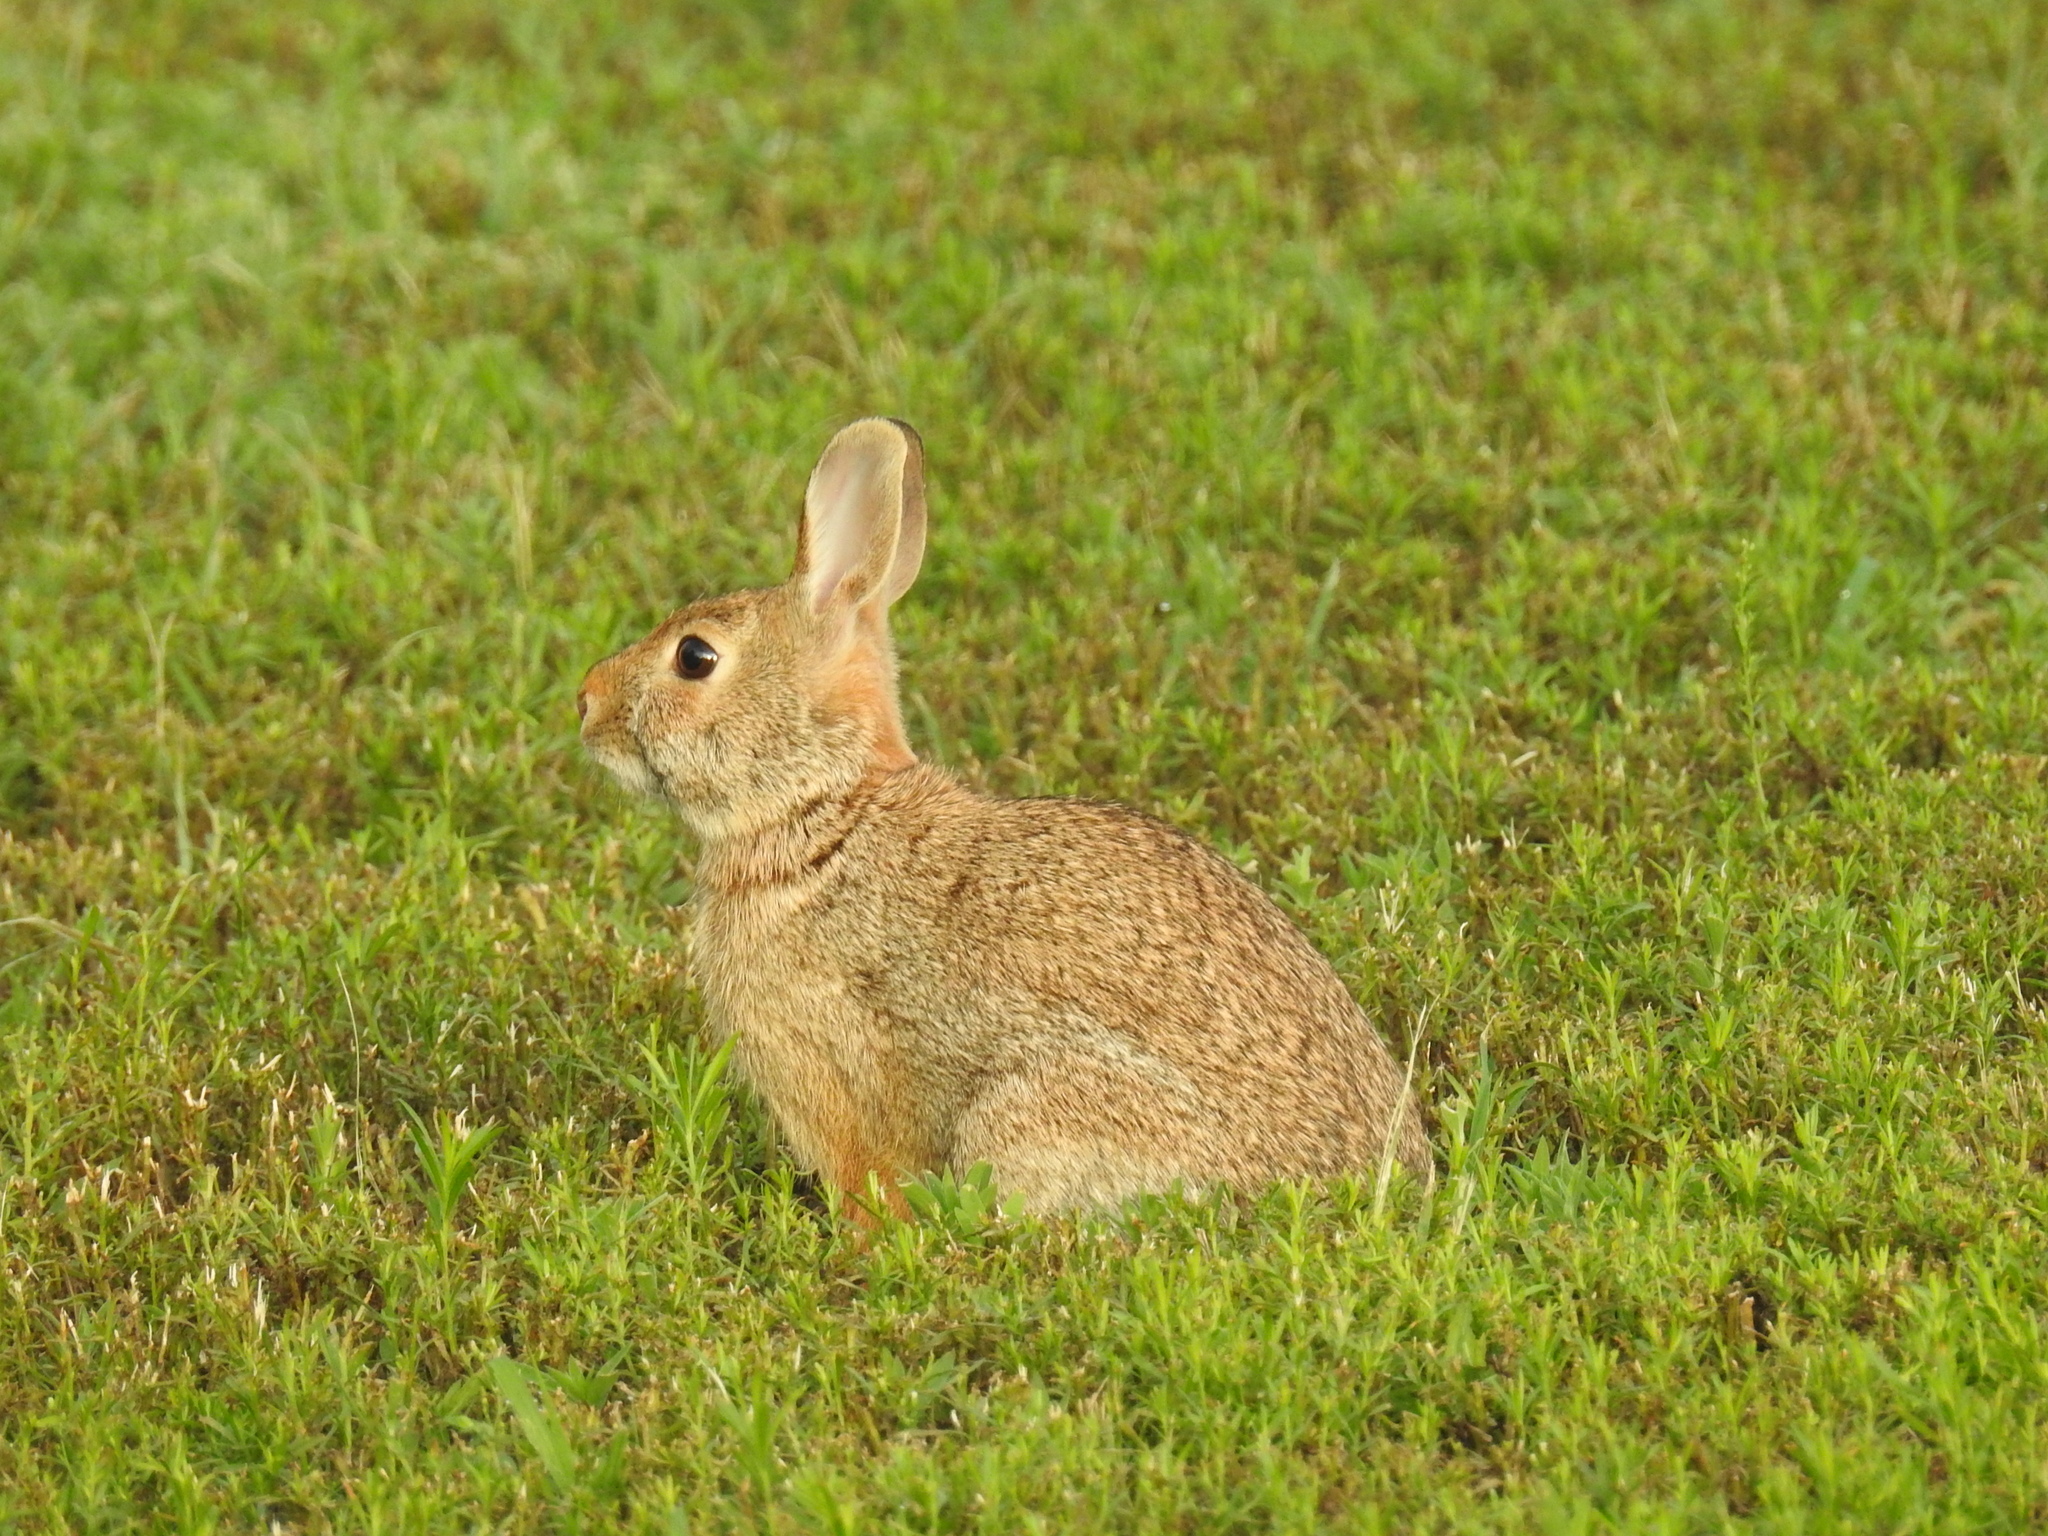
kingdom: Animalia
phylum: Chordata
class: Mammalia
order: Lagomorpha
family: Leporidae
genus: Sylvilagus
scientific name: Sylvilagus floridanus
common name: Eastern cottontail
